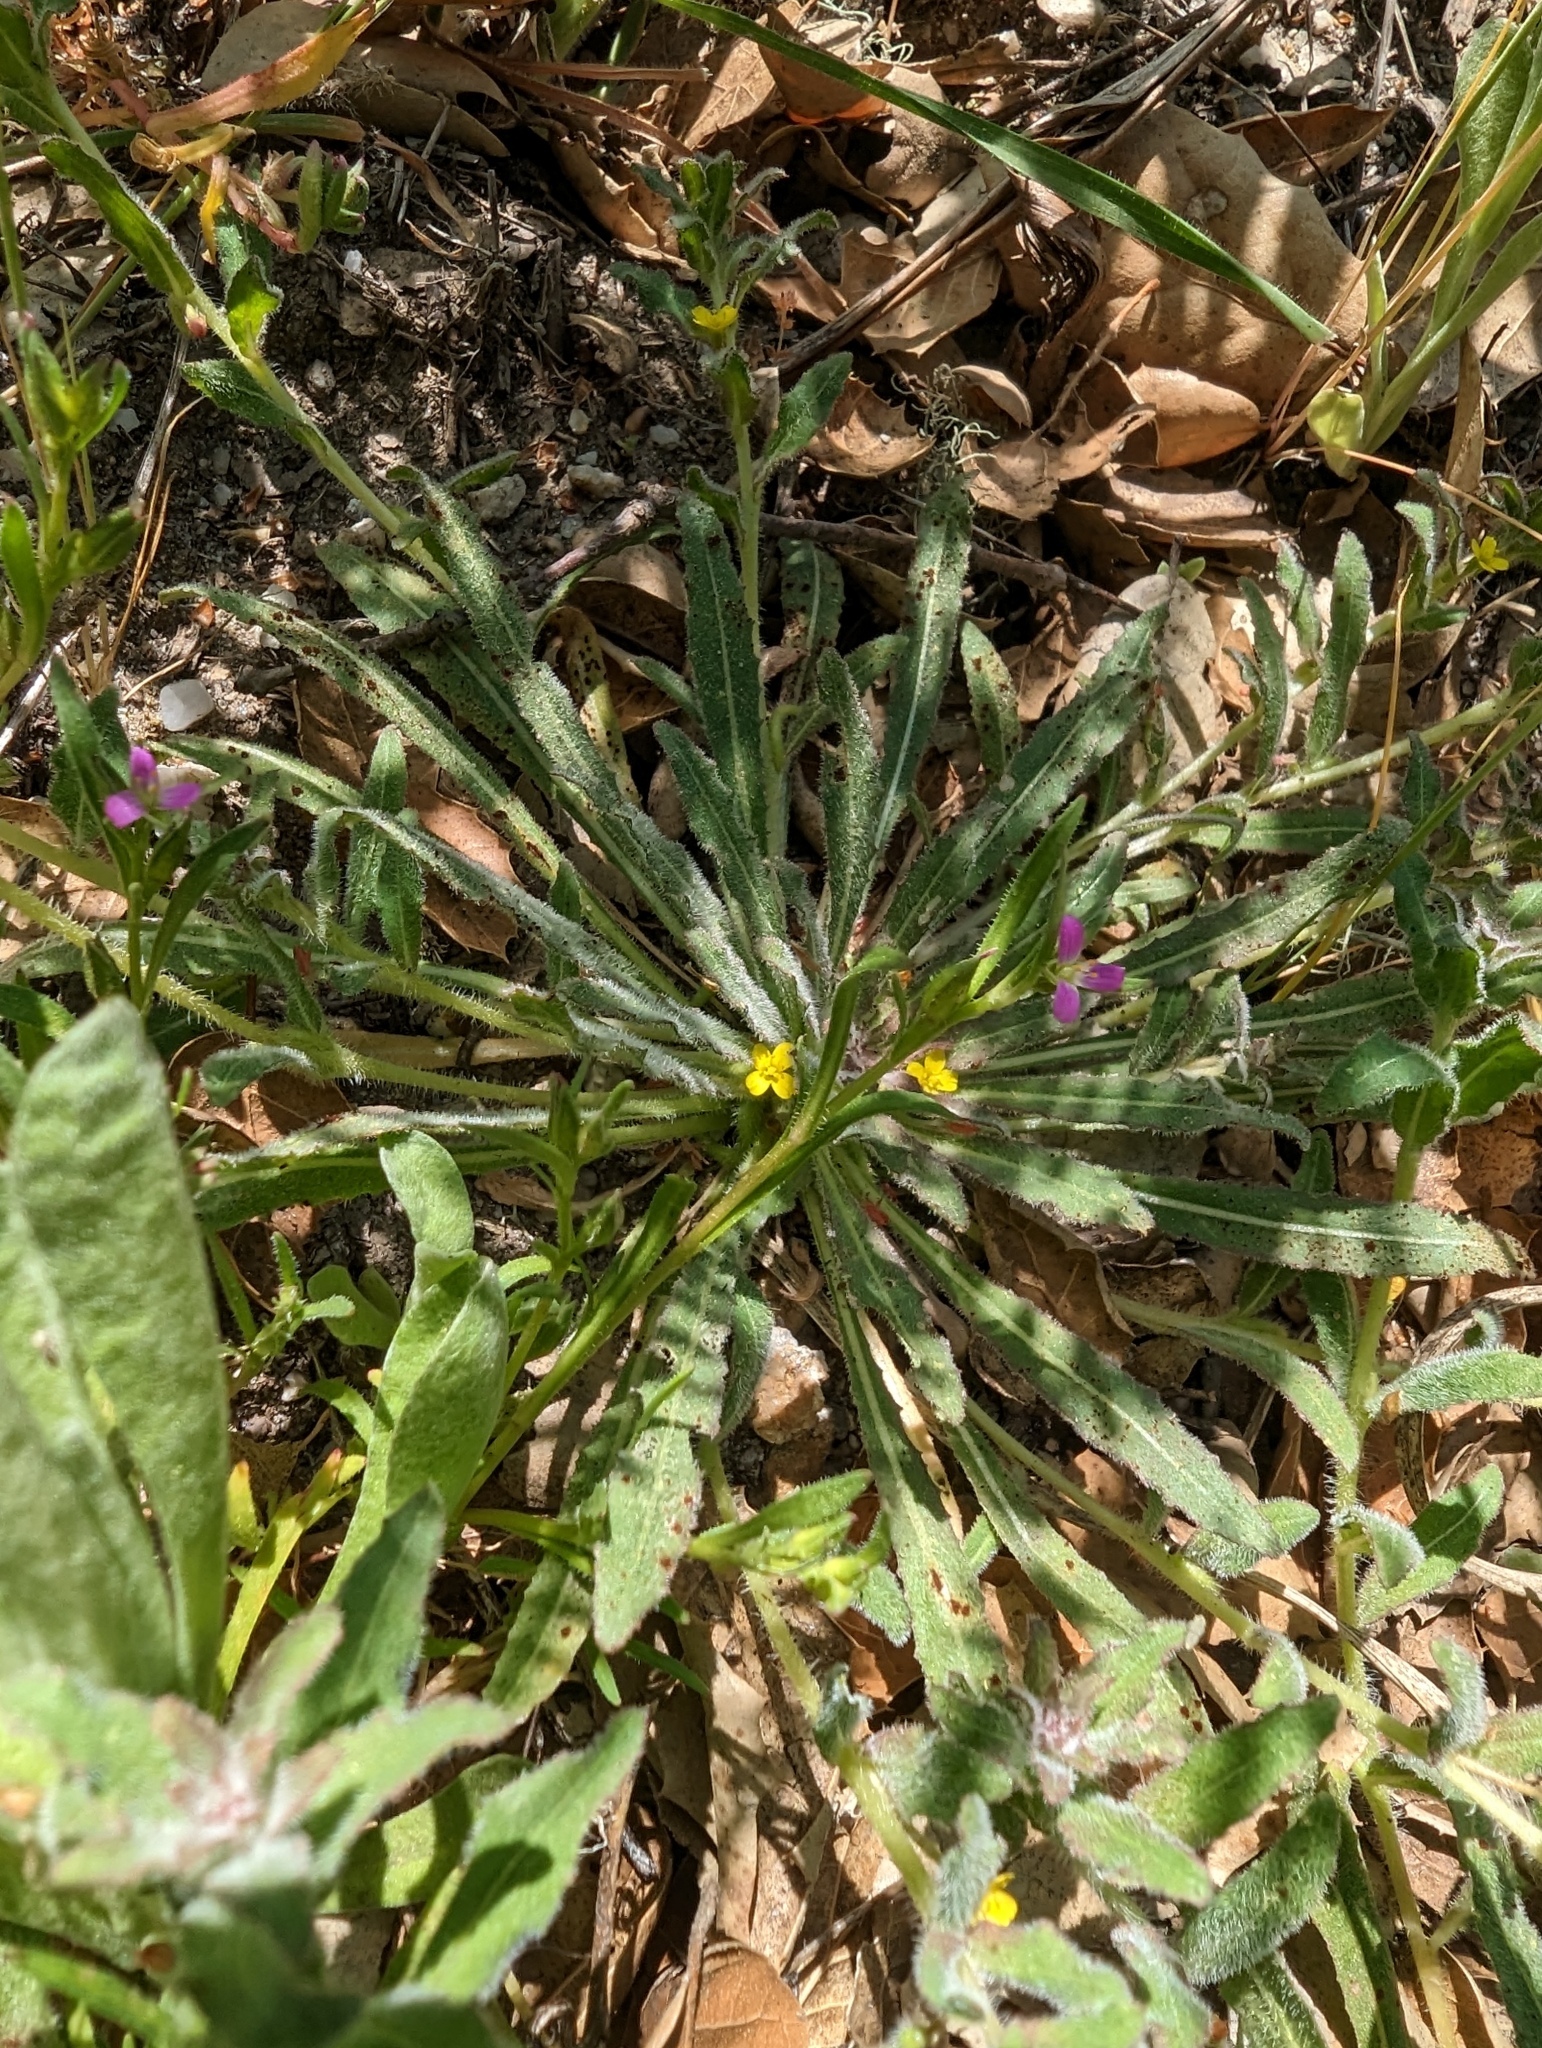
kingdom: Plantae
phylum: Tracheophyta
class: Magnoliopsida
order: Myrtales
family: Onagraceae
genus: Camissoniopsis
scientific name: Camissoniopsis micrantha
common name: Miniature suncup
